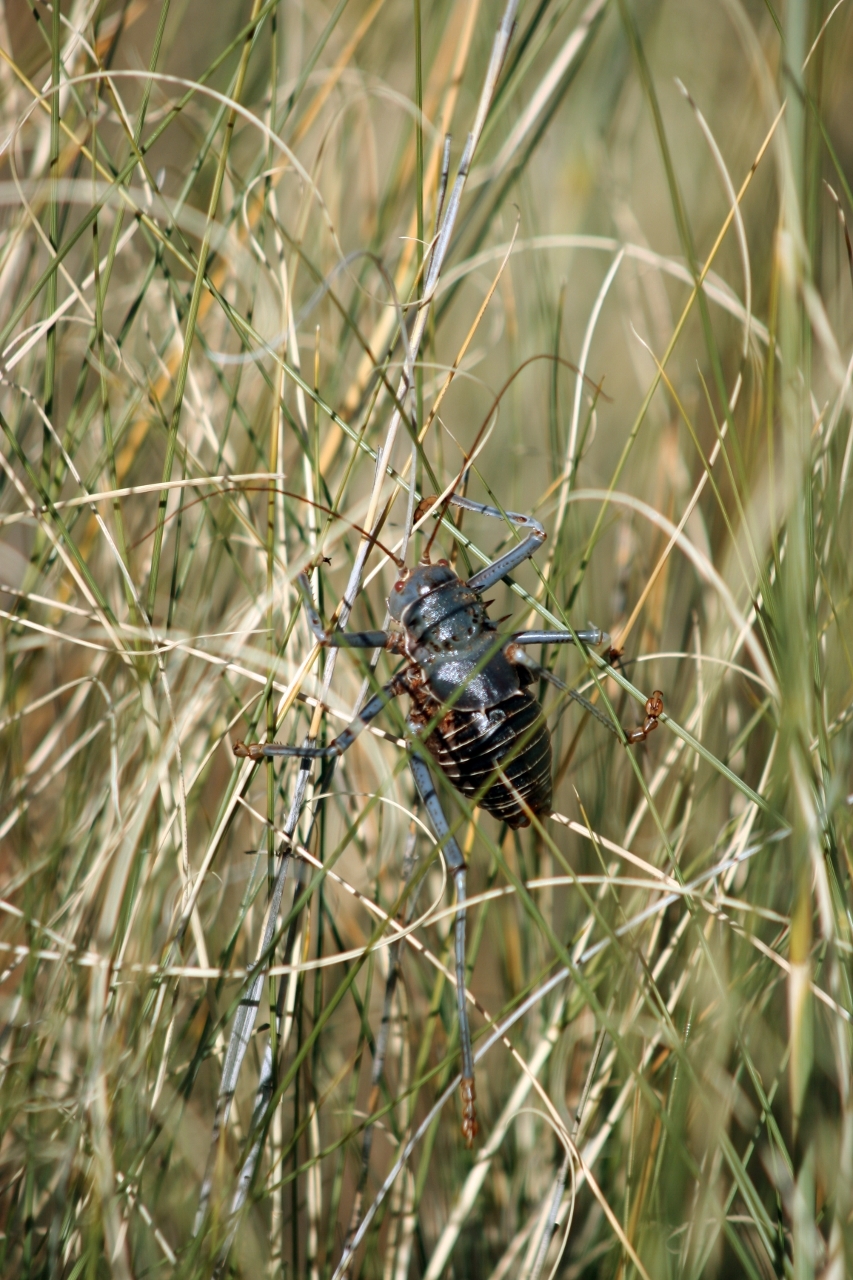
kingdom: Animalia
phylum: Arthropoda
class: Insecta
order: Orthoptera
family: Tettigoniidae
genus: Acanthoplus
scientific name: Acanthoplus discoidalis
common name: Armoured katydid
